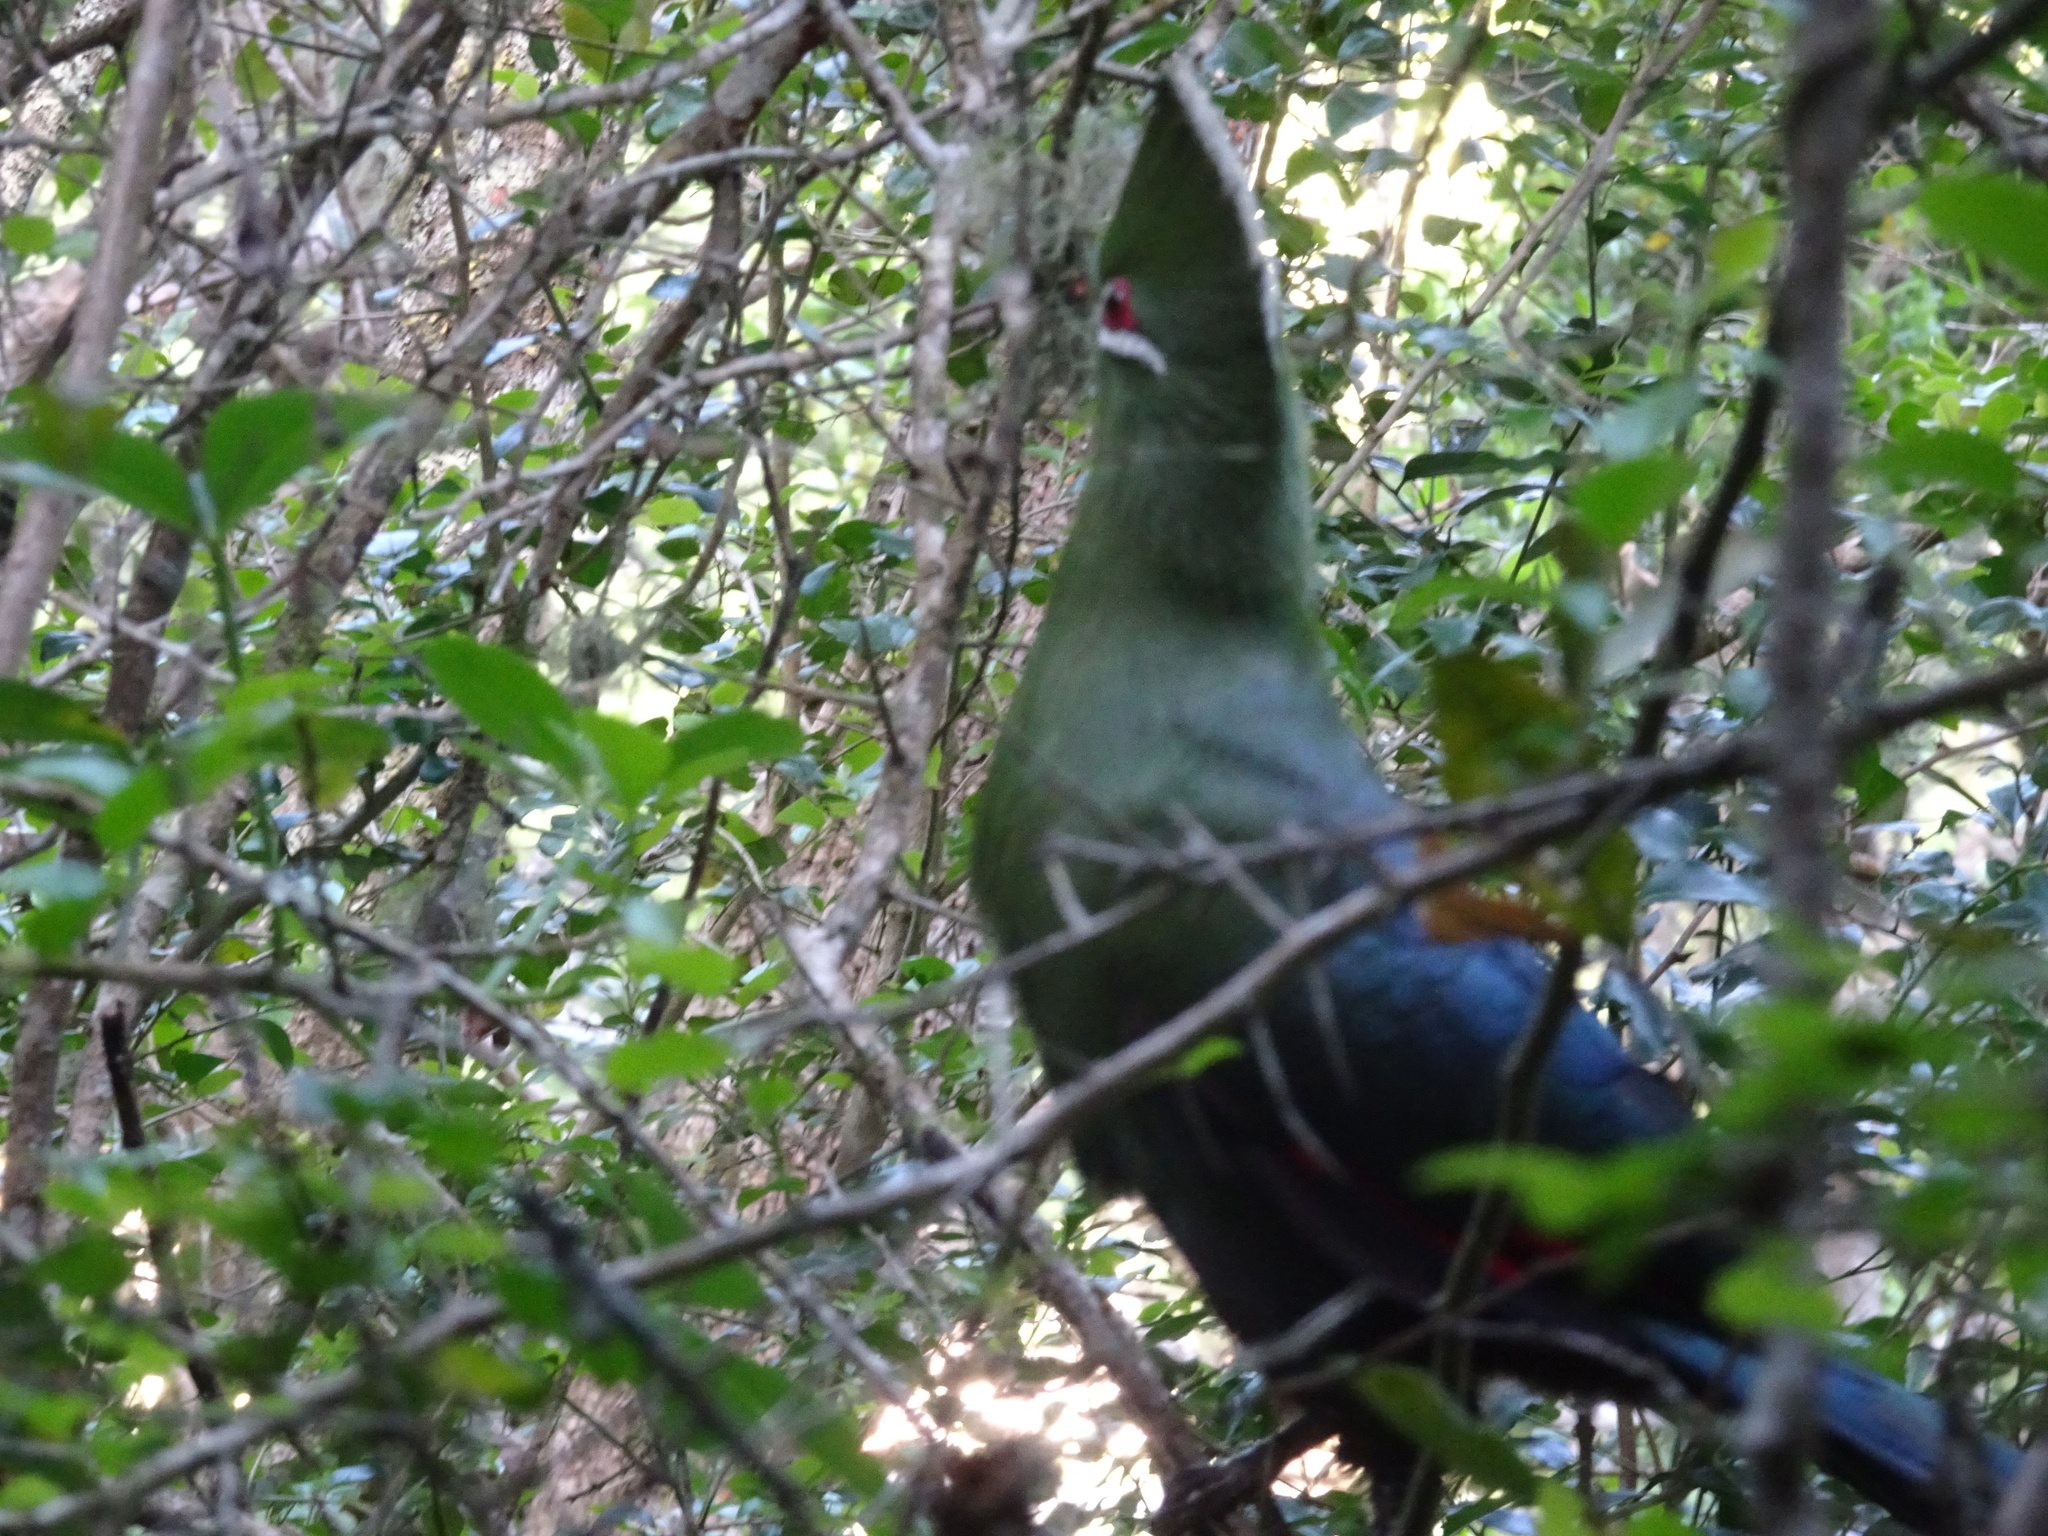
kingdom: Animalia
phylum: Chordata
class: Aves
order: Musophagiformes
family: Musophagidae
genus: Tauraco
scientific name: Tauraco corythaix
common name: Knysna turaco
